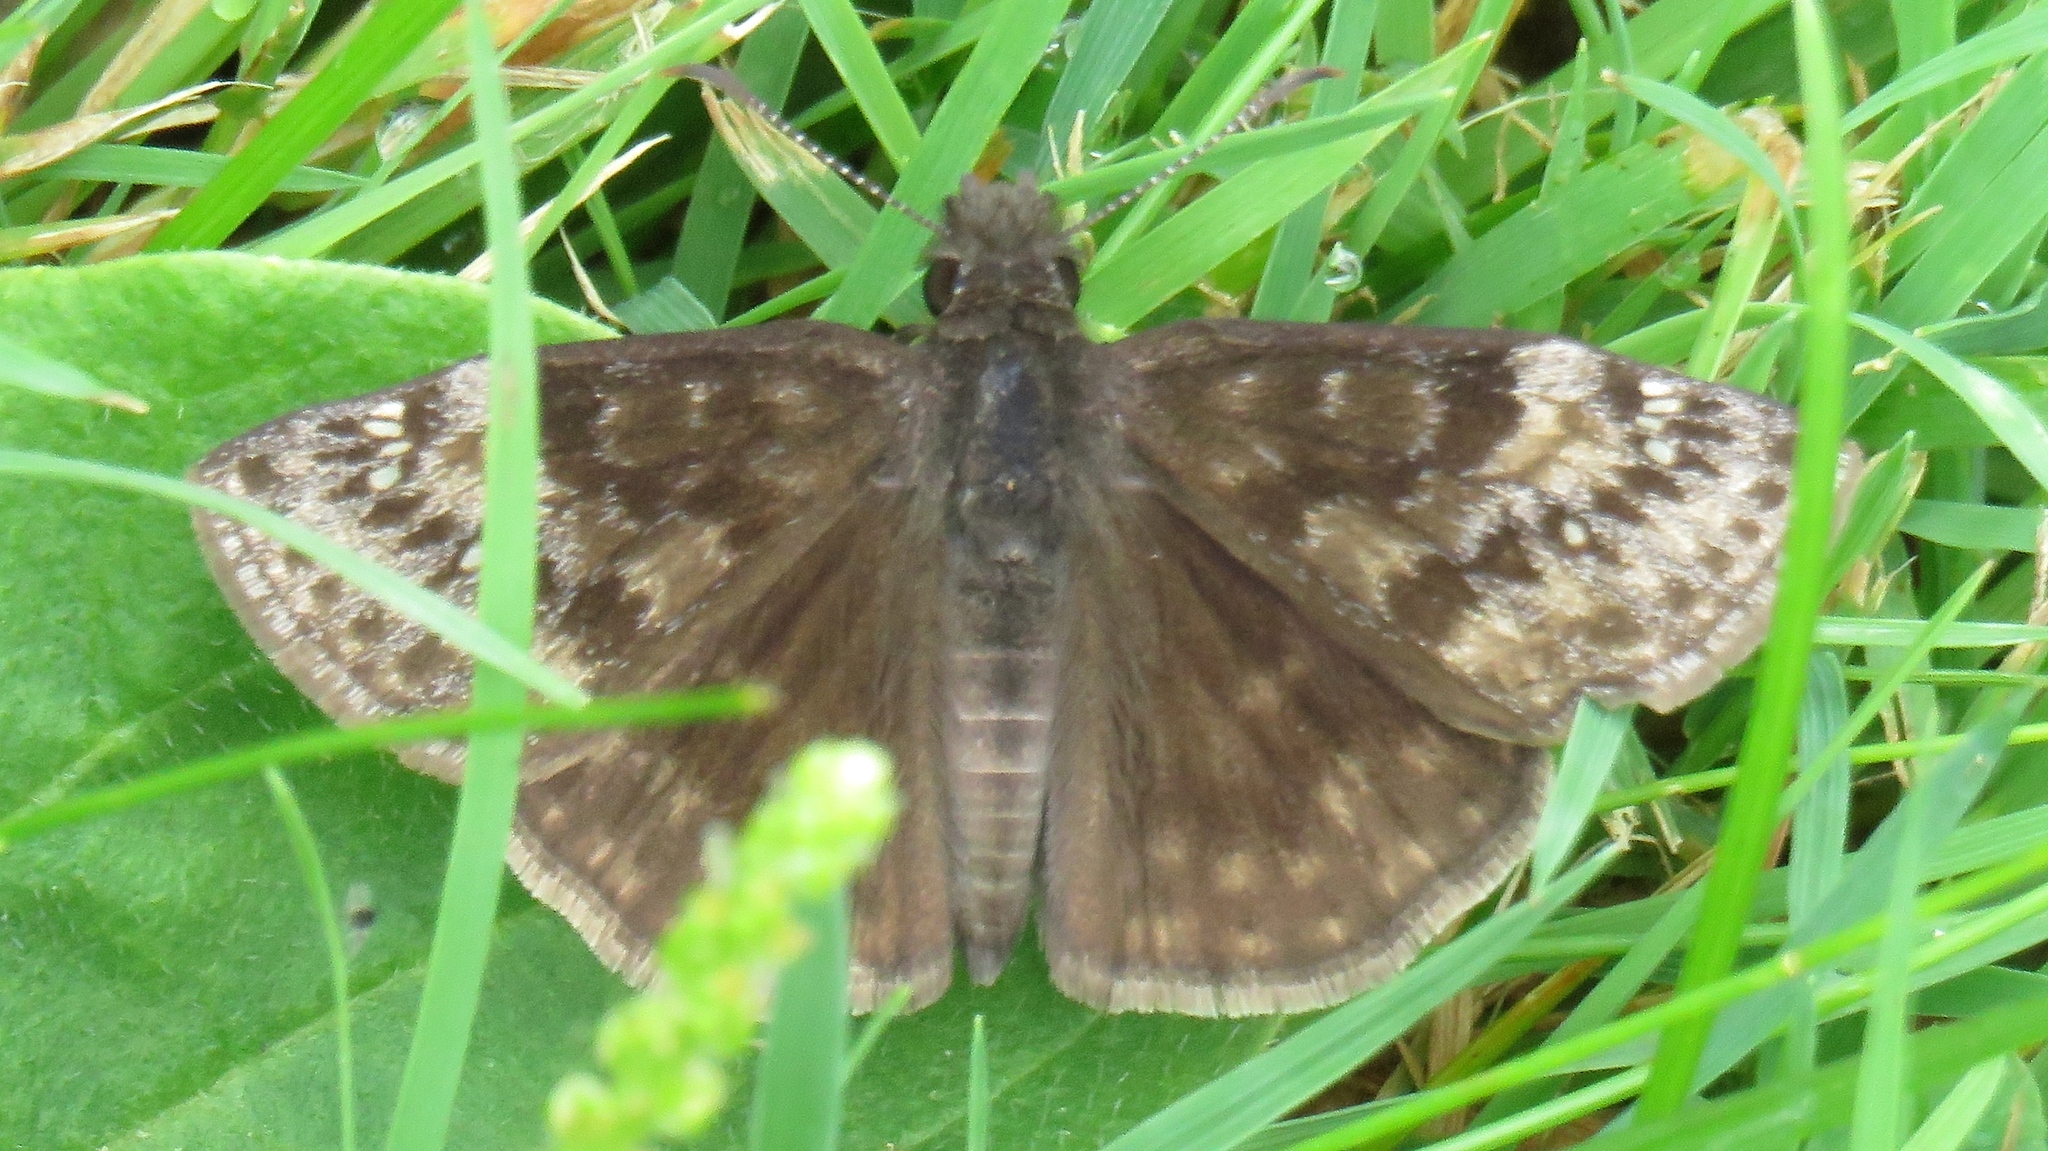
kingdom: Animalia
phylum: Arthropoda
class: Insecta
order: Lepidoptera
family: Hesperiidae
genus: Erynnis
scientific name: Erynnis baptisiae
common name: Wild indigo duskywing
